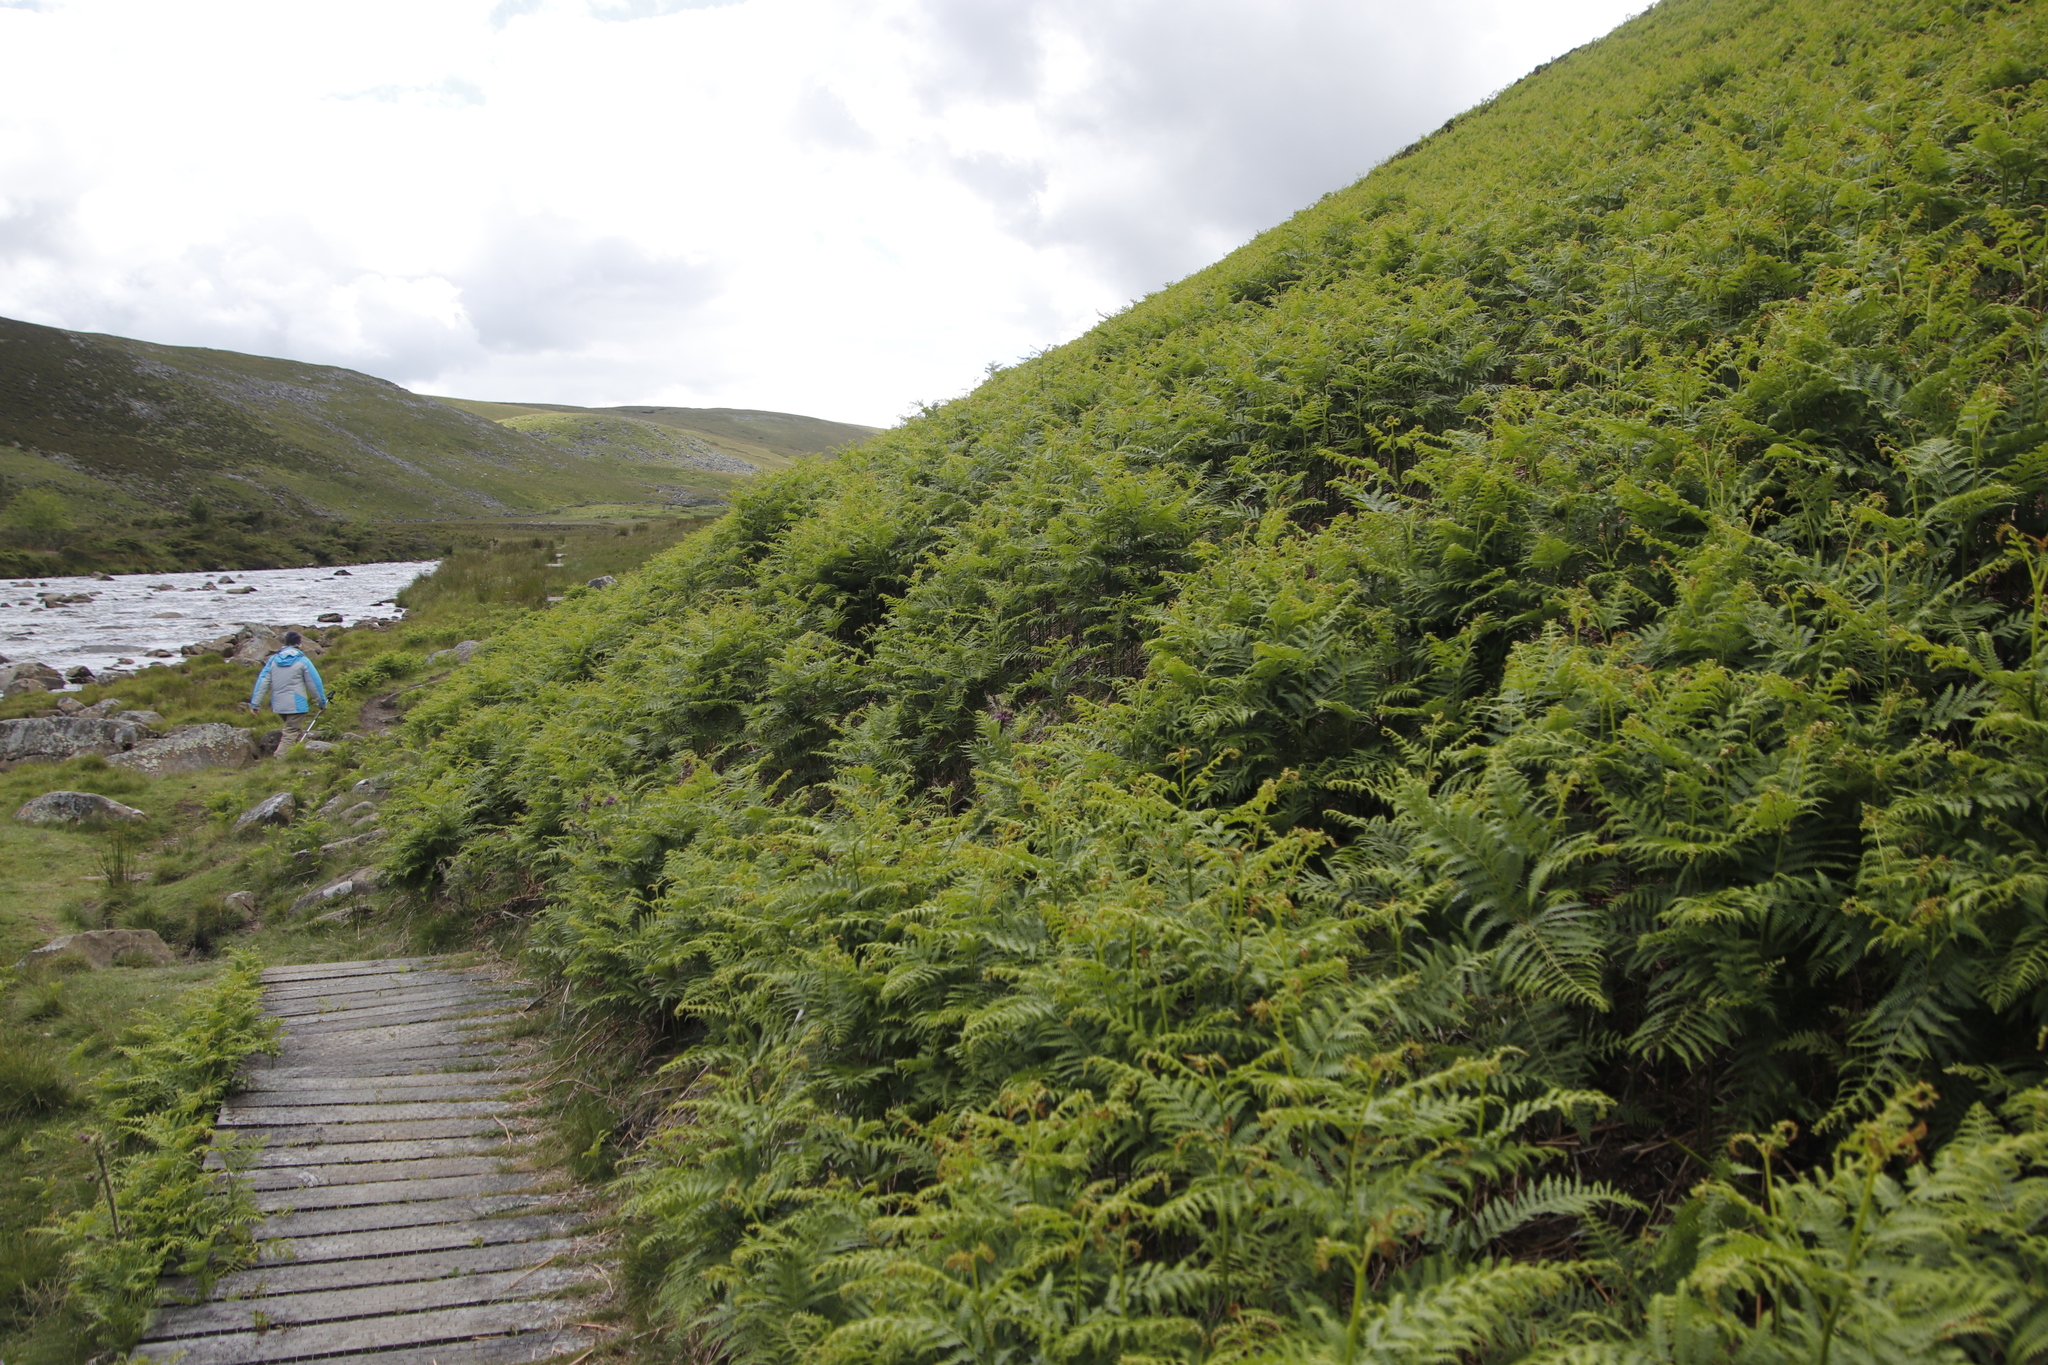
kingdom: Plantae
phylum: Tracheophyta
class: Polypodiopsida
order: Polypodiales
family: Dennstaedtiaceae
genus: Pteridium
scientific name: Pteridium aquilinum
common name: Bracken
